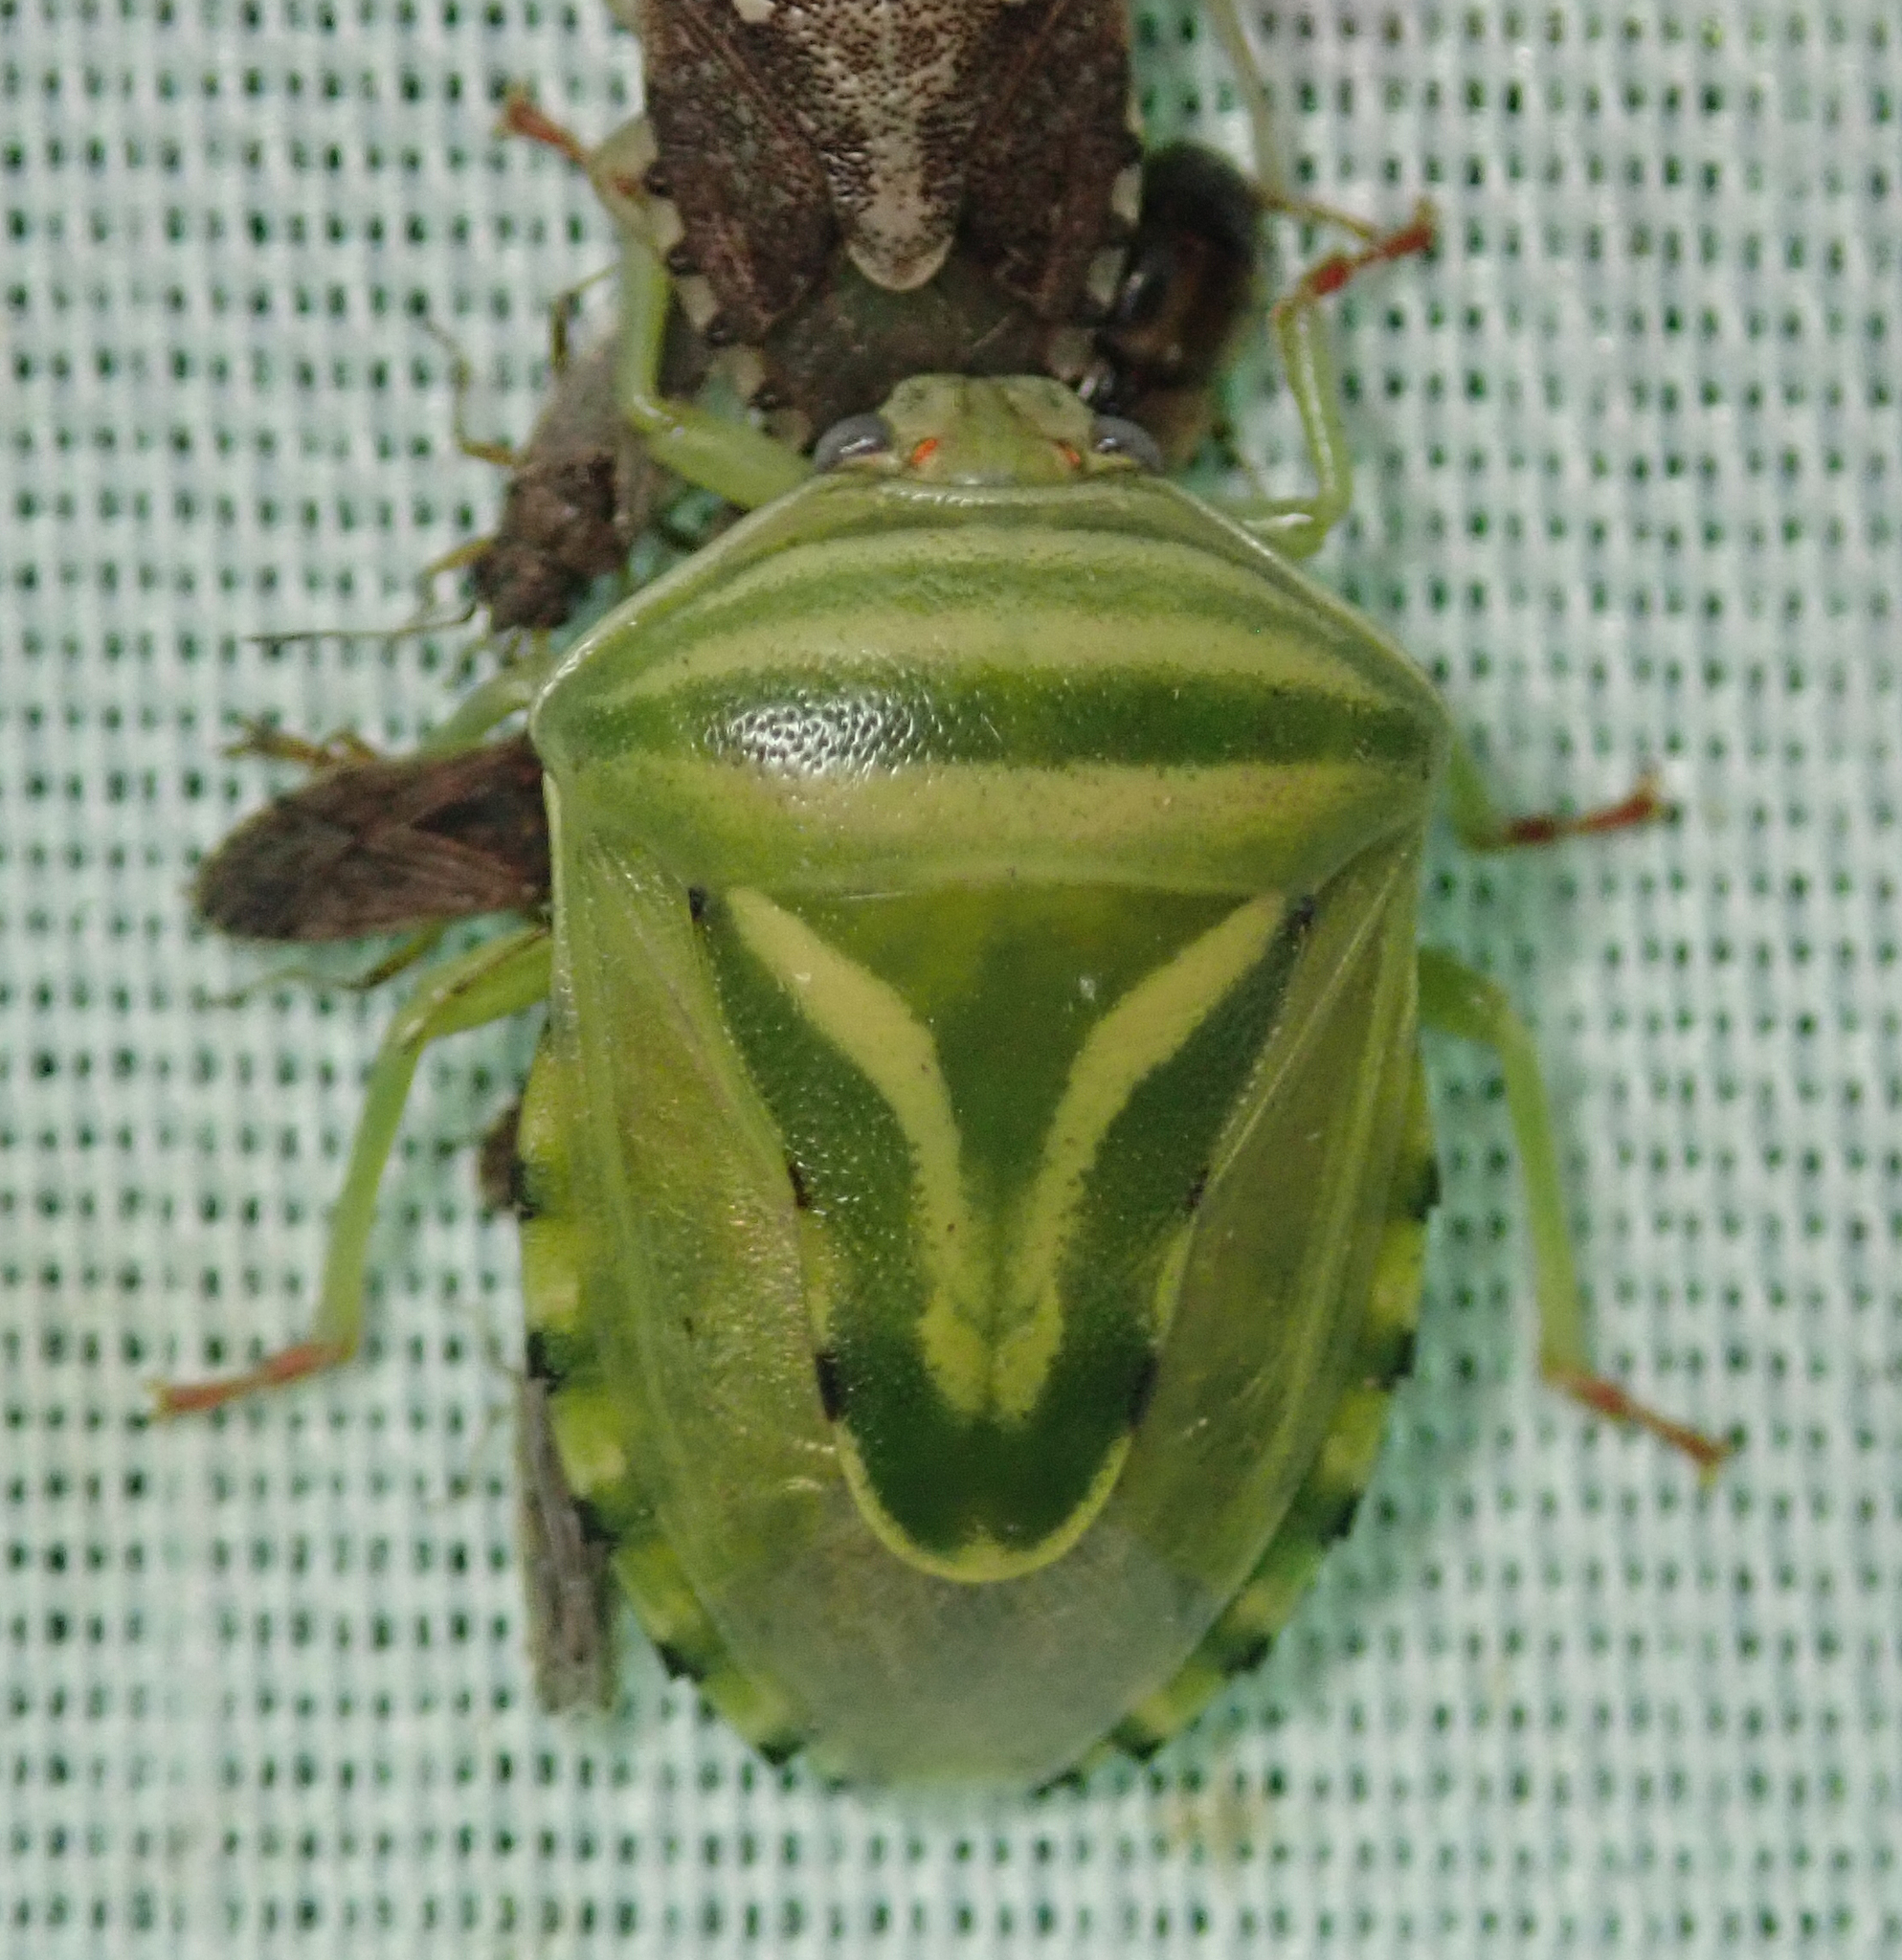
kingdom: Animalia
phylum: Arthropoda
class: Insecta
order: Hemiptera
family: Acanthosomatidae
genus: Lindbergicoris
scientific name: Lindbergicoris Platacantha lutea
